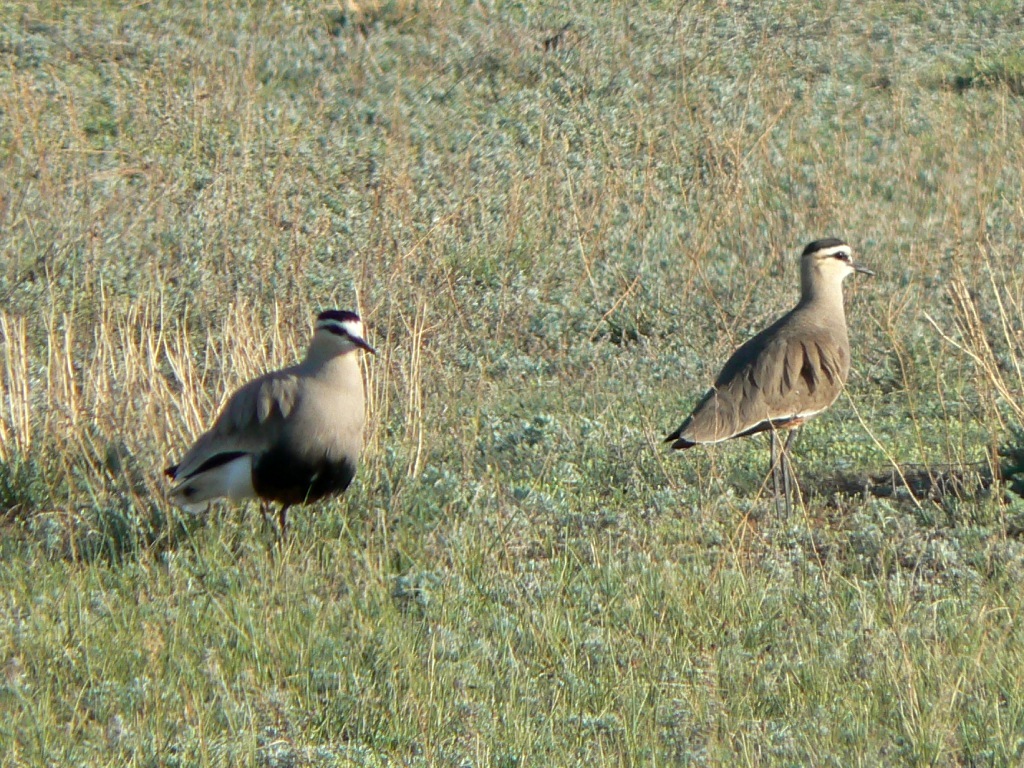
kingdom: Animalia
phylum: Chordata
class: Aves
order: Charadriiformes
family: Charadriidae
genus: Vanellus
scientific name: Vanellus gregarius
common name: Sociable lapwing
